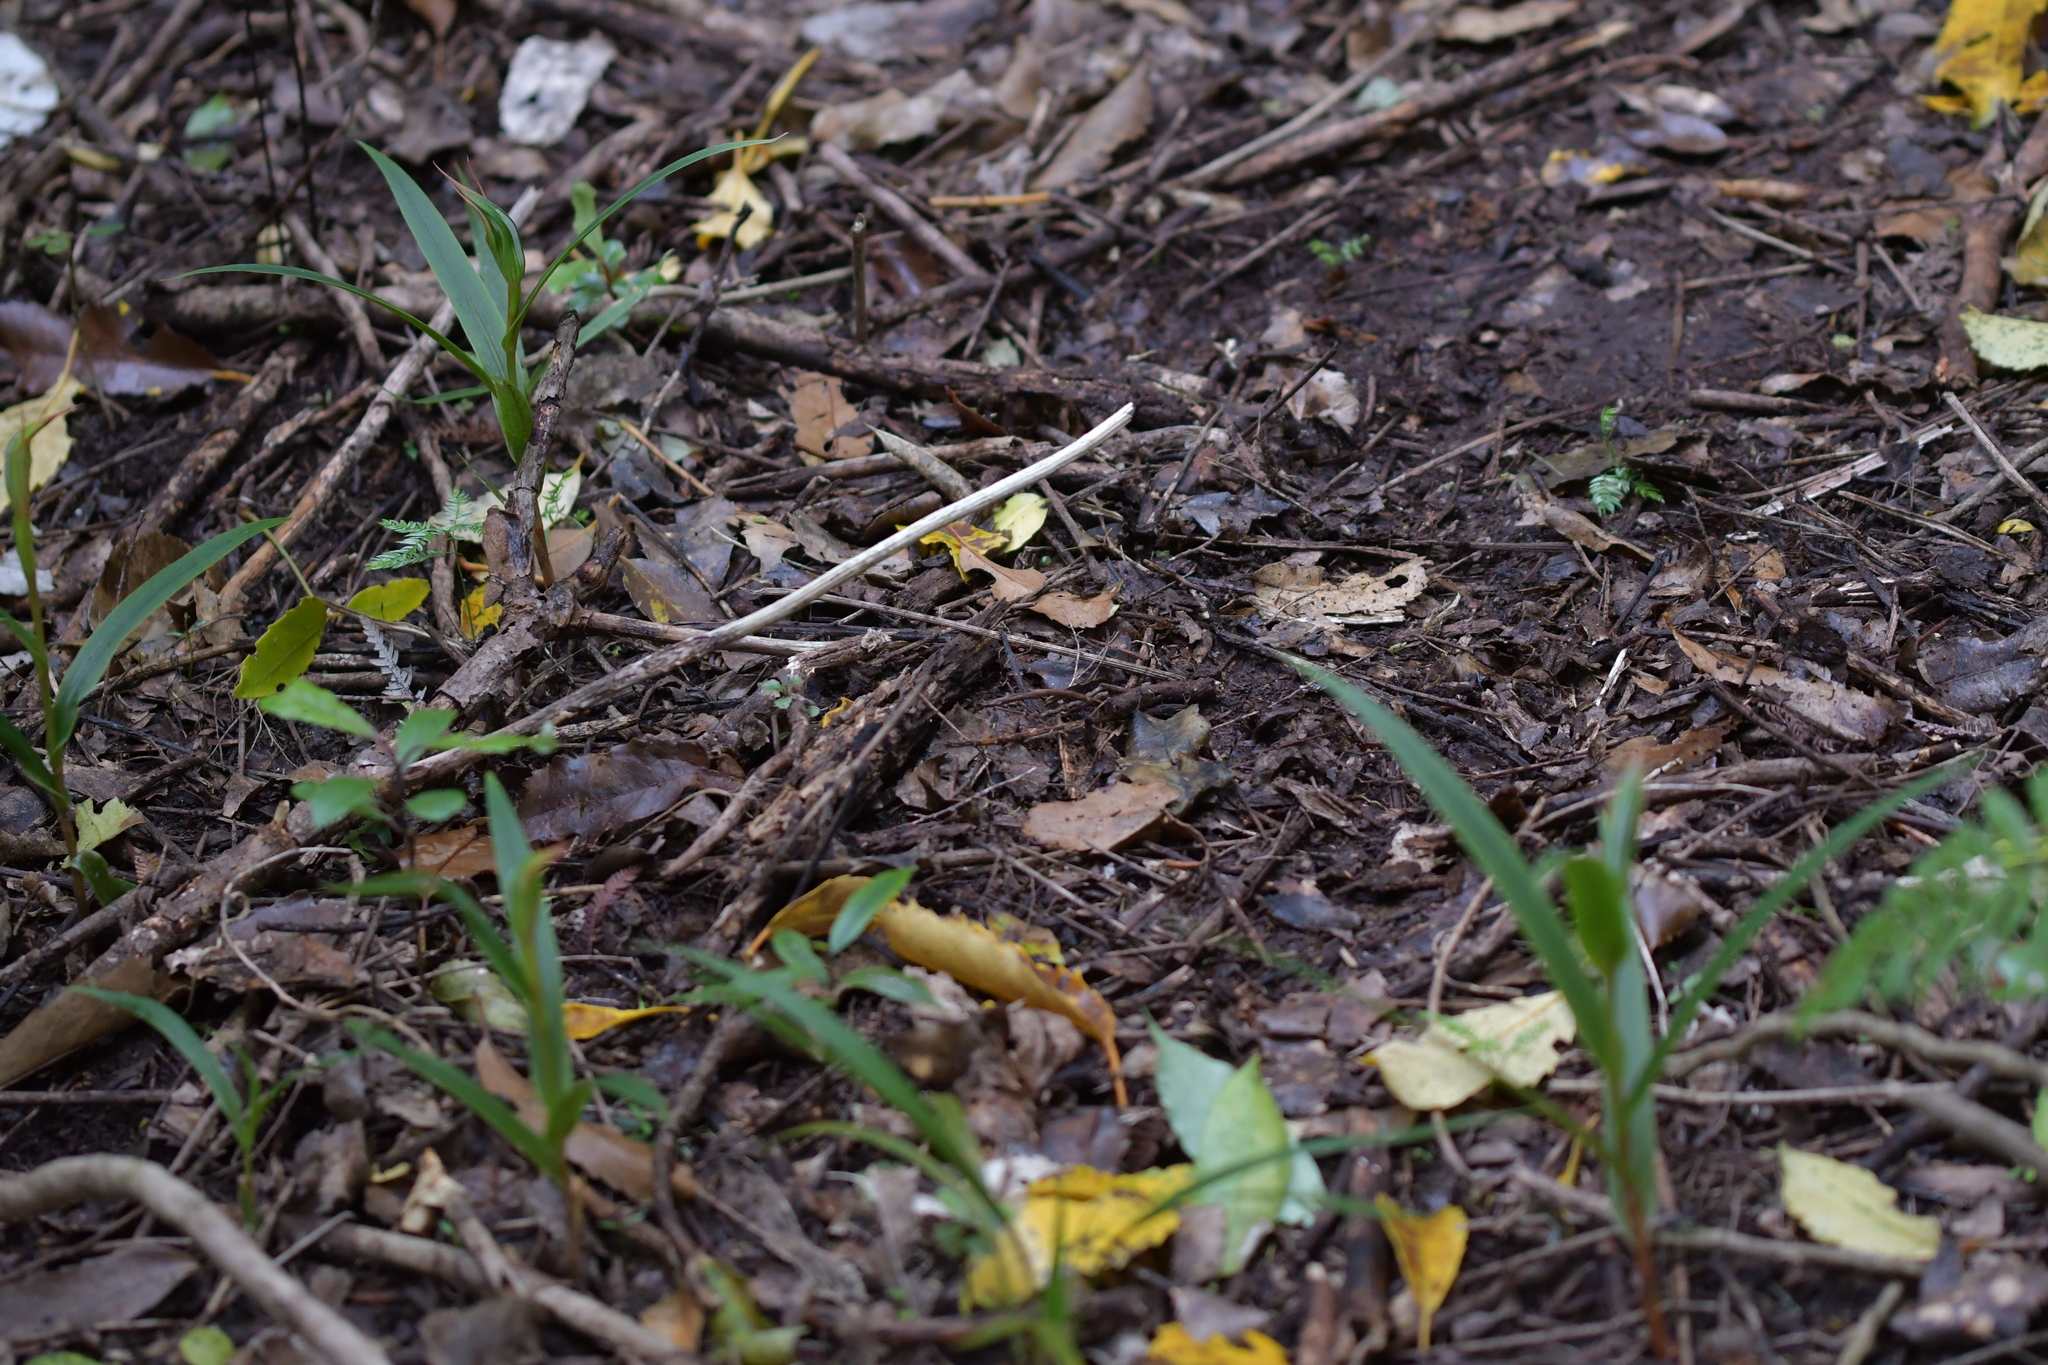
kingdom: Plantae
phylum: Tracheophyta
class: Liliopsida
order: Asparagales
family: Orchidaceae
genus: Pterostylis
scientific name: Pterostylis cardiostigma
